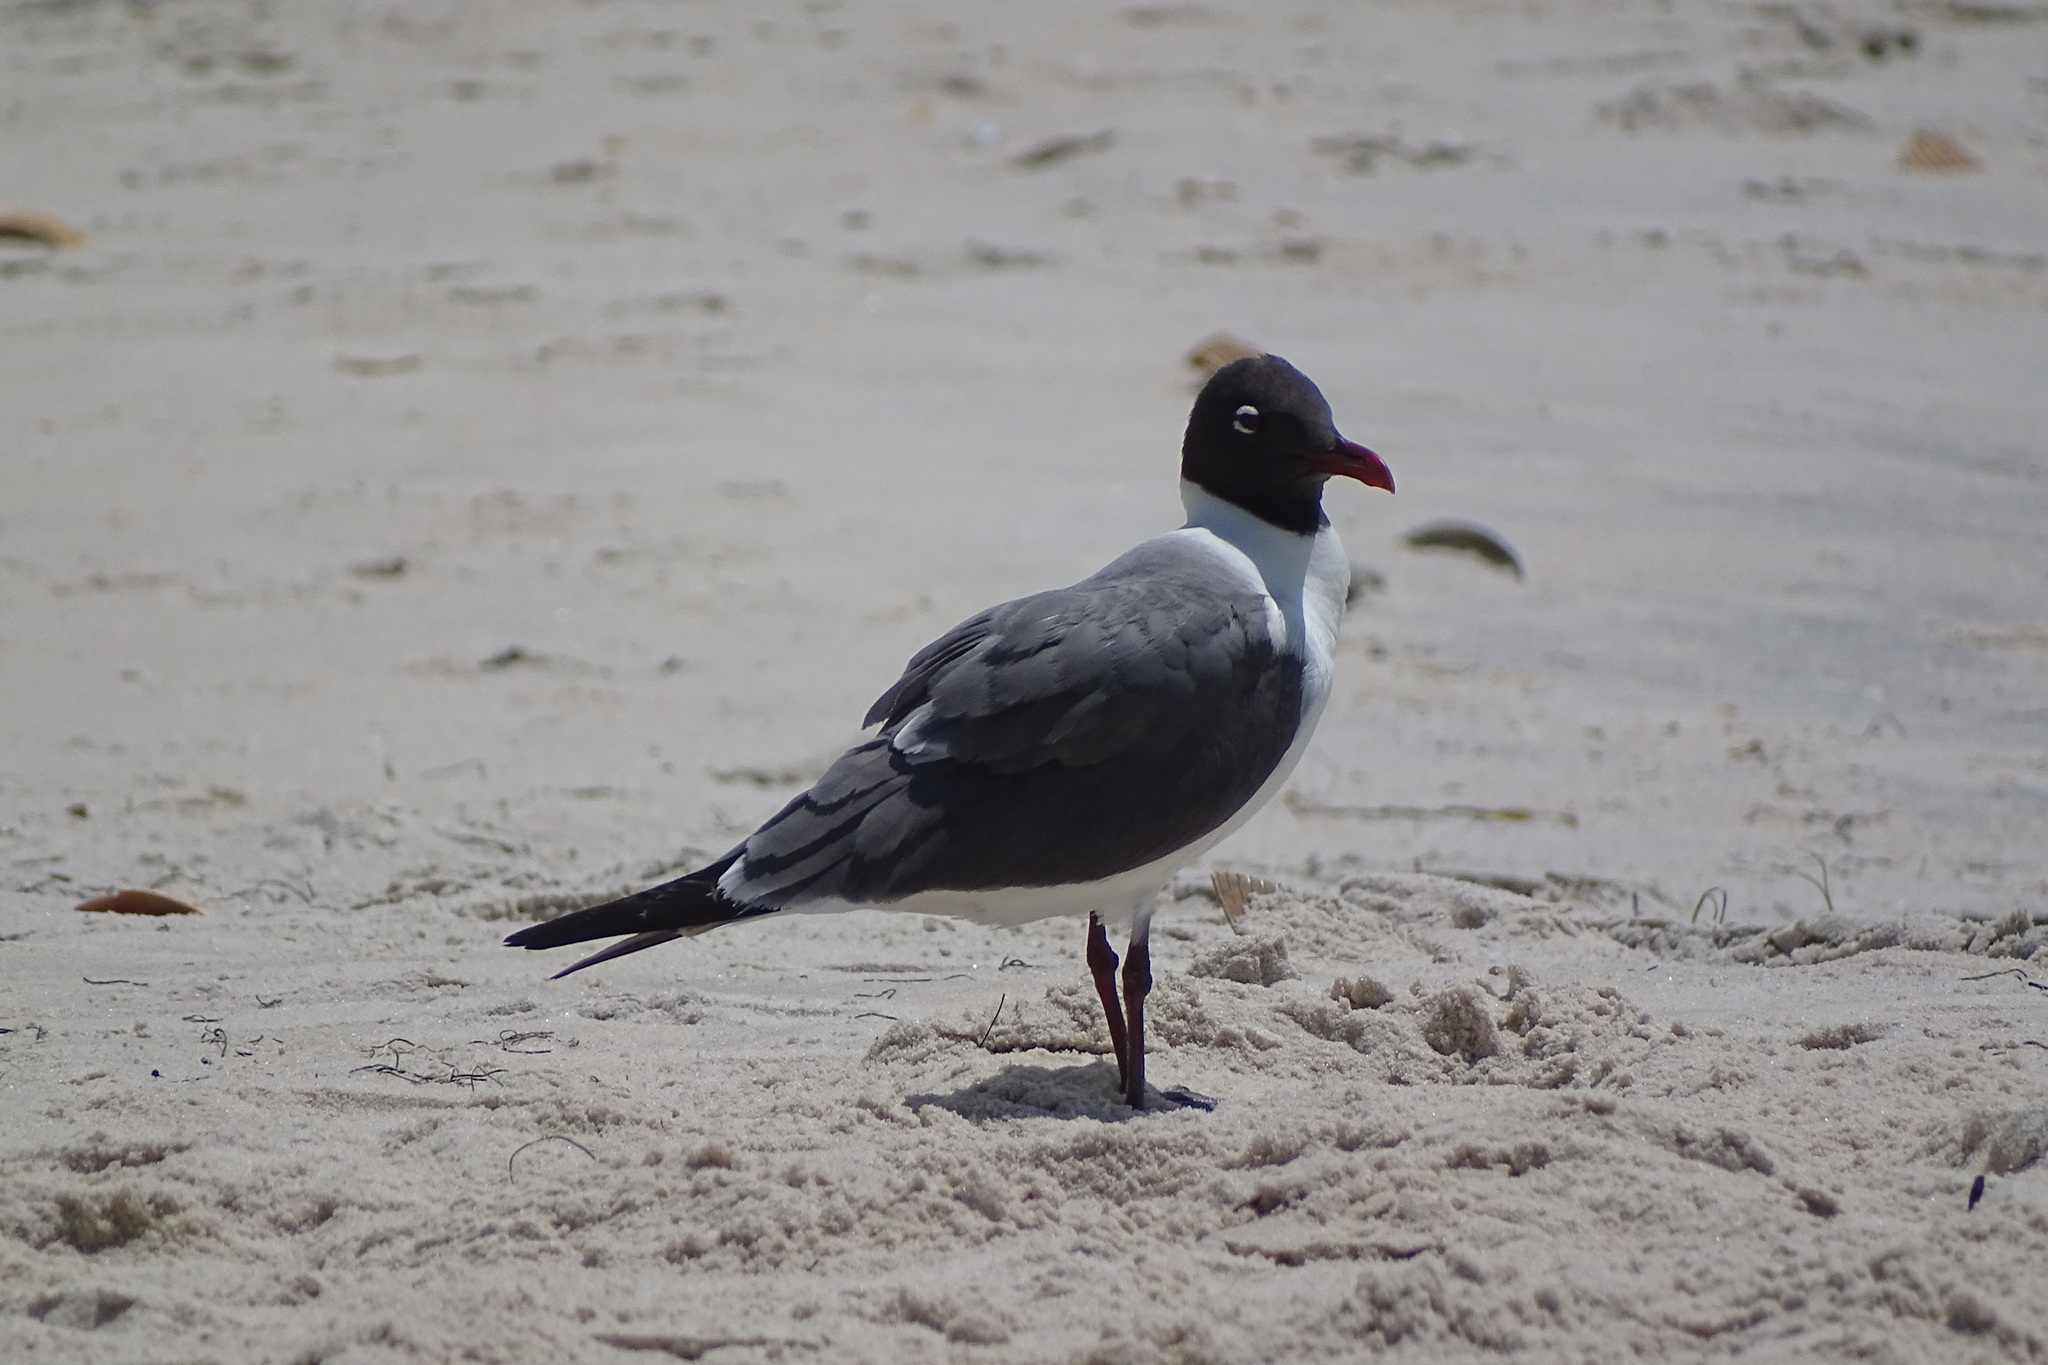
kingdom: Animalia
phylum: Chordata
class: Aves
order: Charadriiformes
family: Laridae
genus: Leucophaeus
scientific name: Leucophaeus atricilla
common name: Laughing gull
